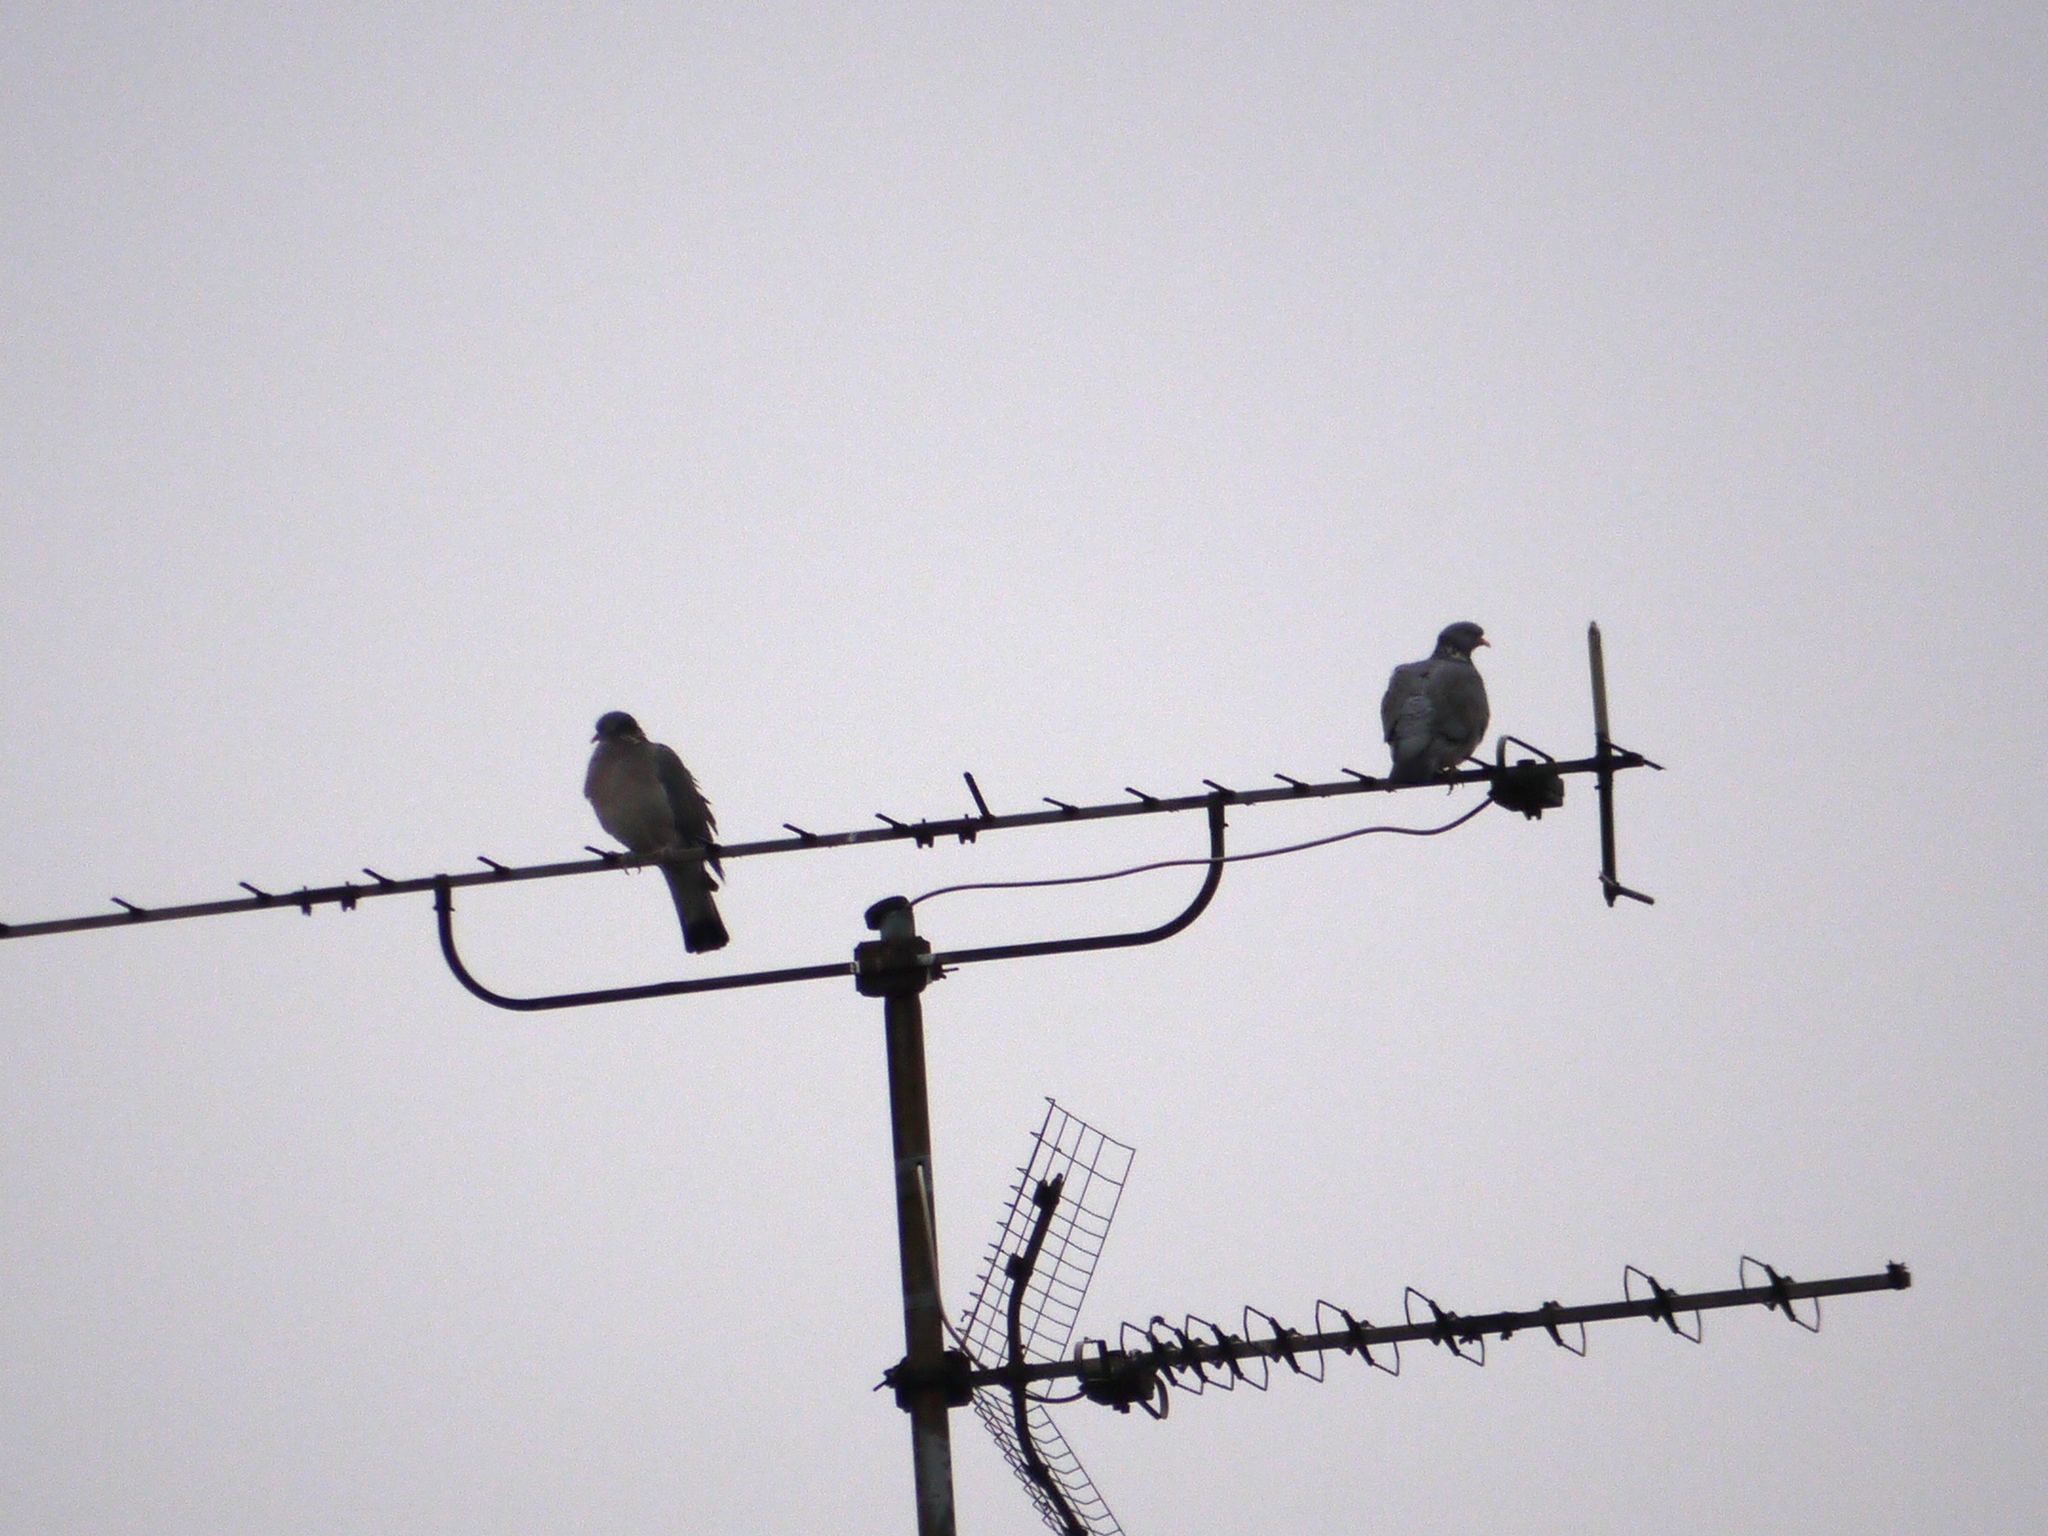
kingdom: Animalia
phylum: Chordata
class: Aves
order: Columbiformes
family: Columbidae
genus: Columba
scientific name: Columba palumbus
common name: Common wood pigeon
